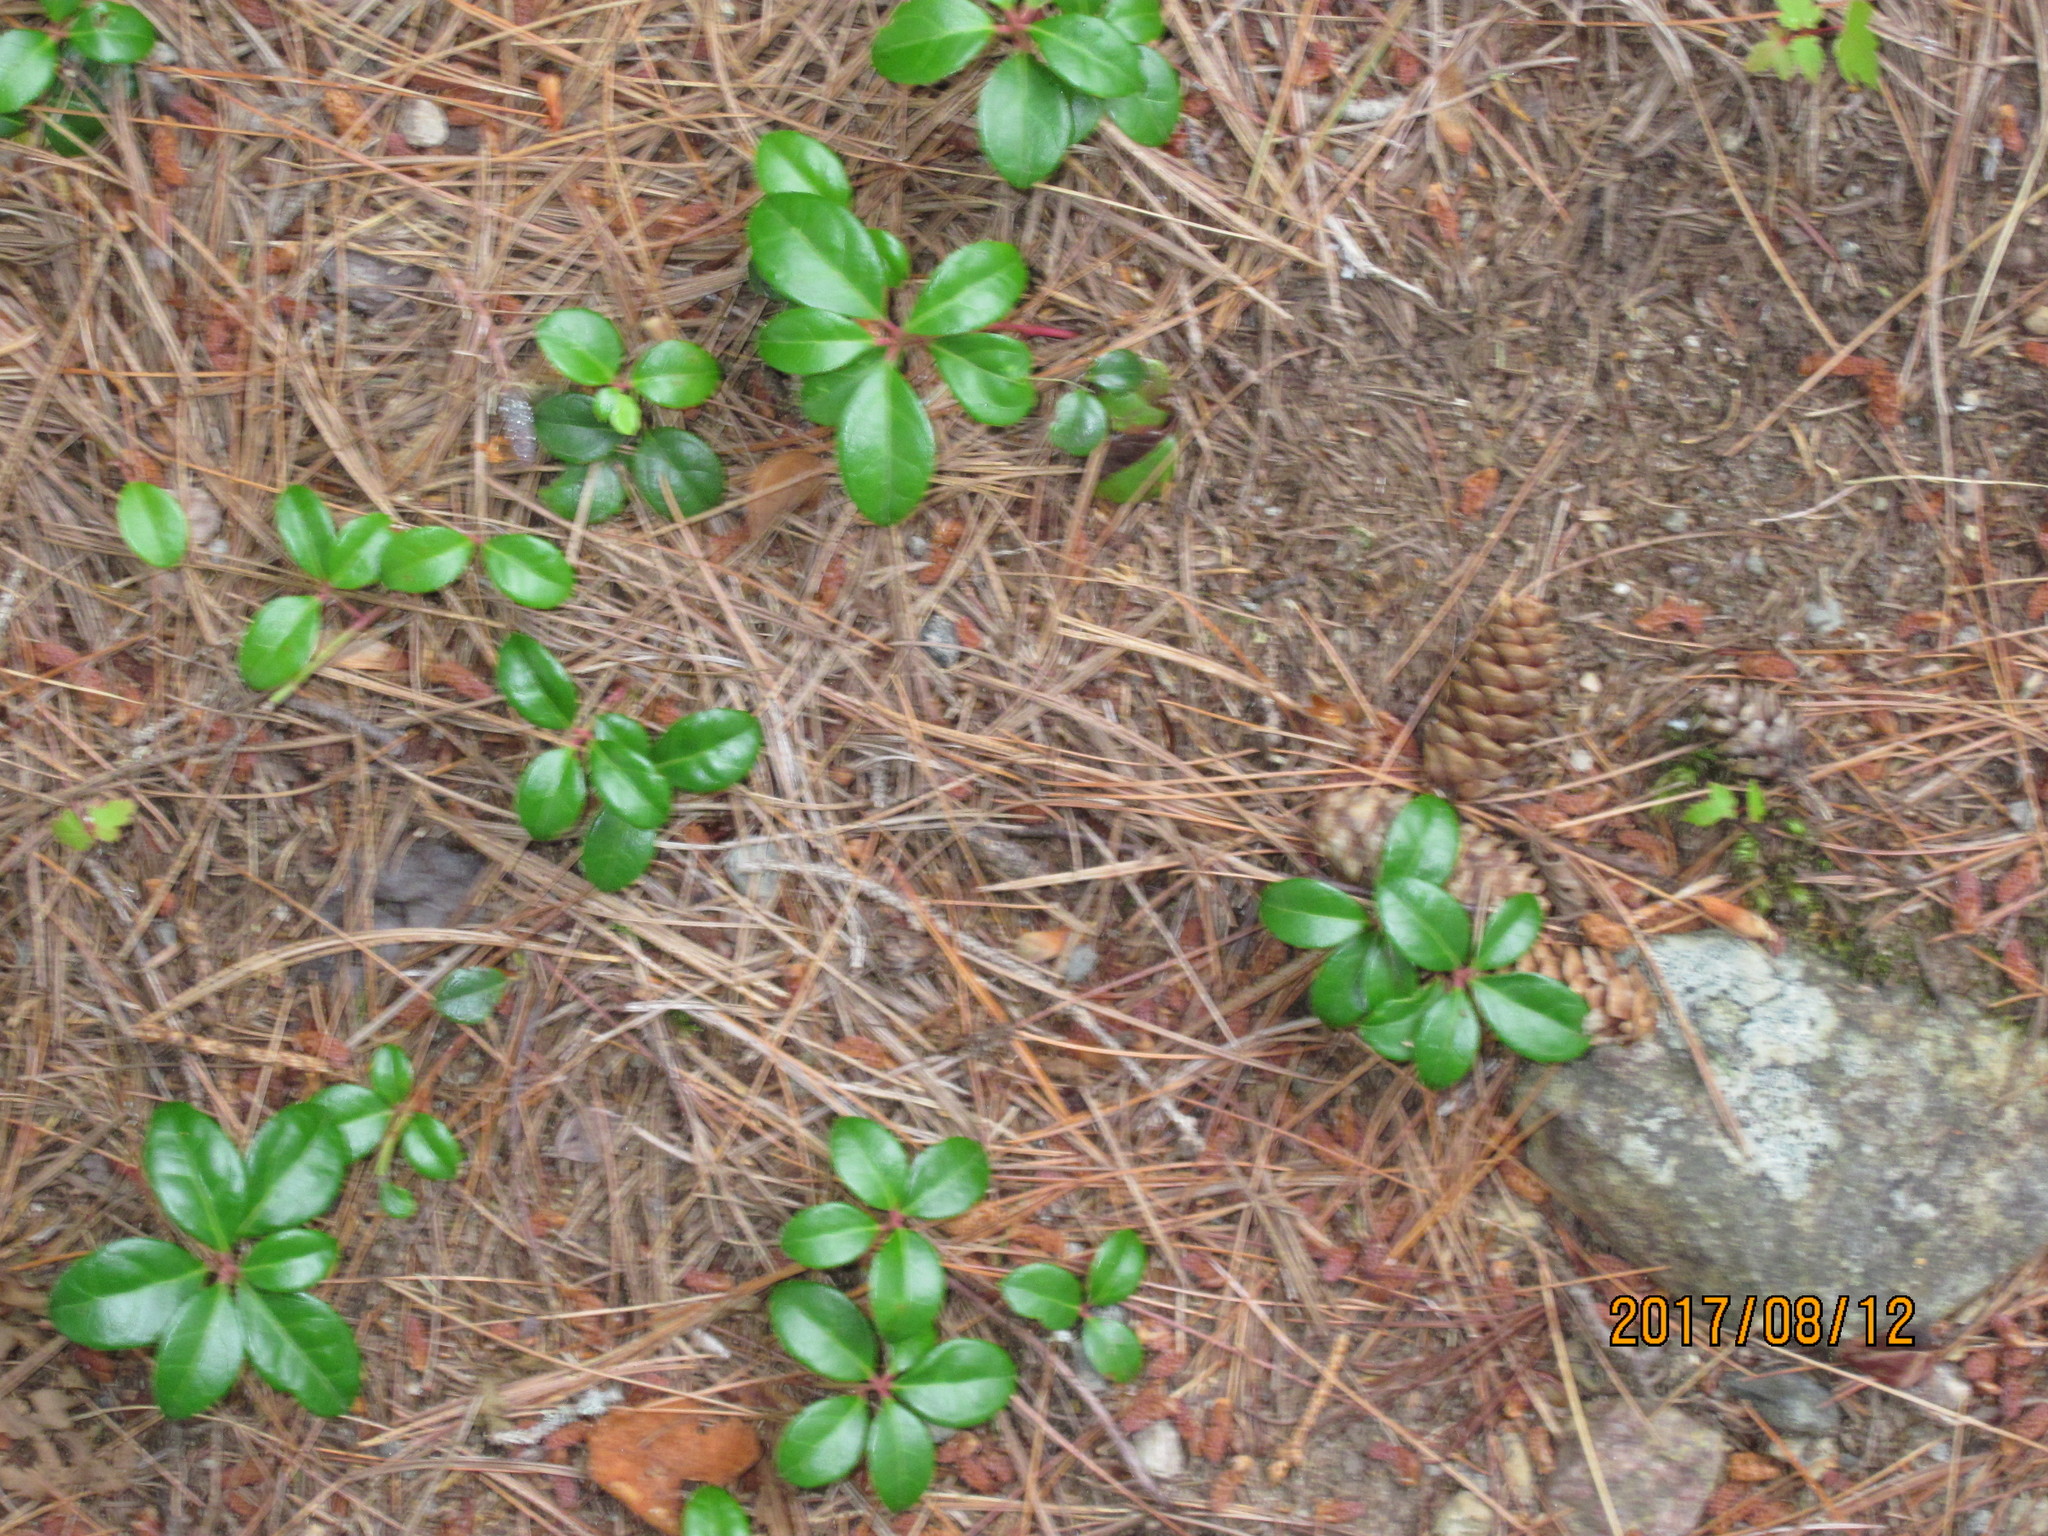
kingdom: Plantae
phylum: Tracheophyta
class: Magnoliopsida
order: Ericales
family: Ericaceae
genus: Gaultheria
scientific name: Gaultheria procumbens
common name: Checkerberry
